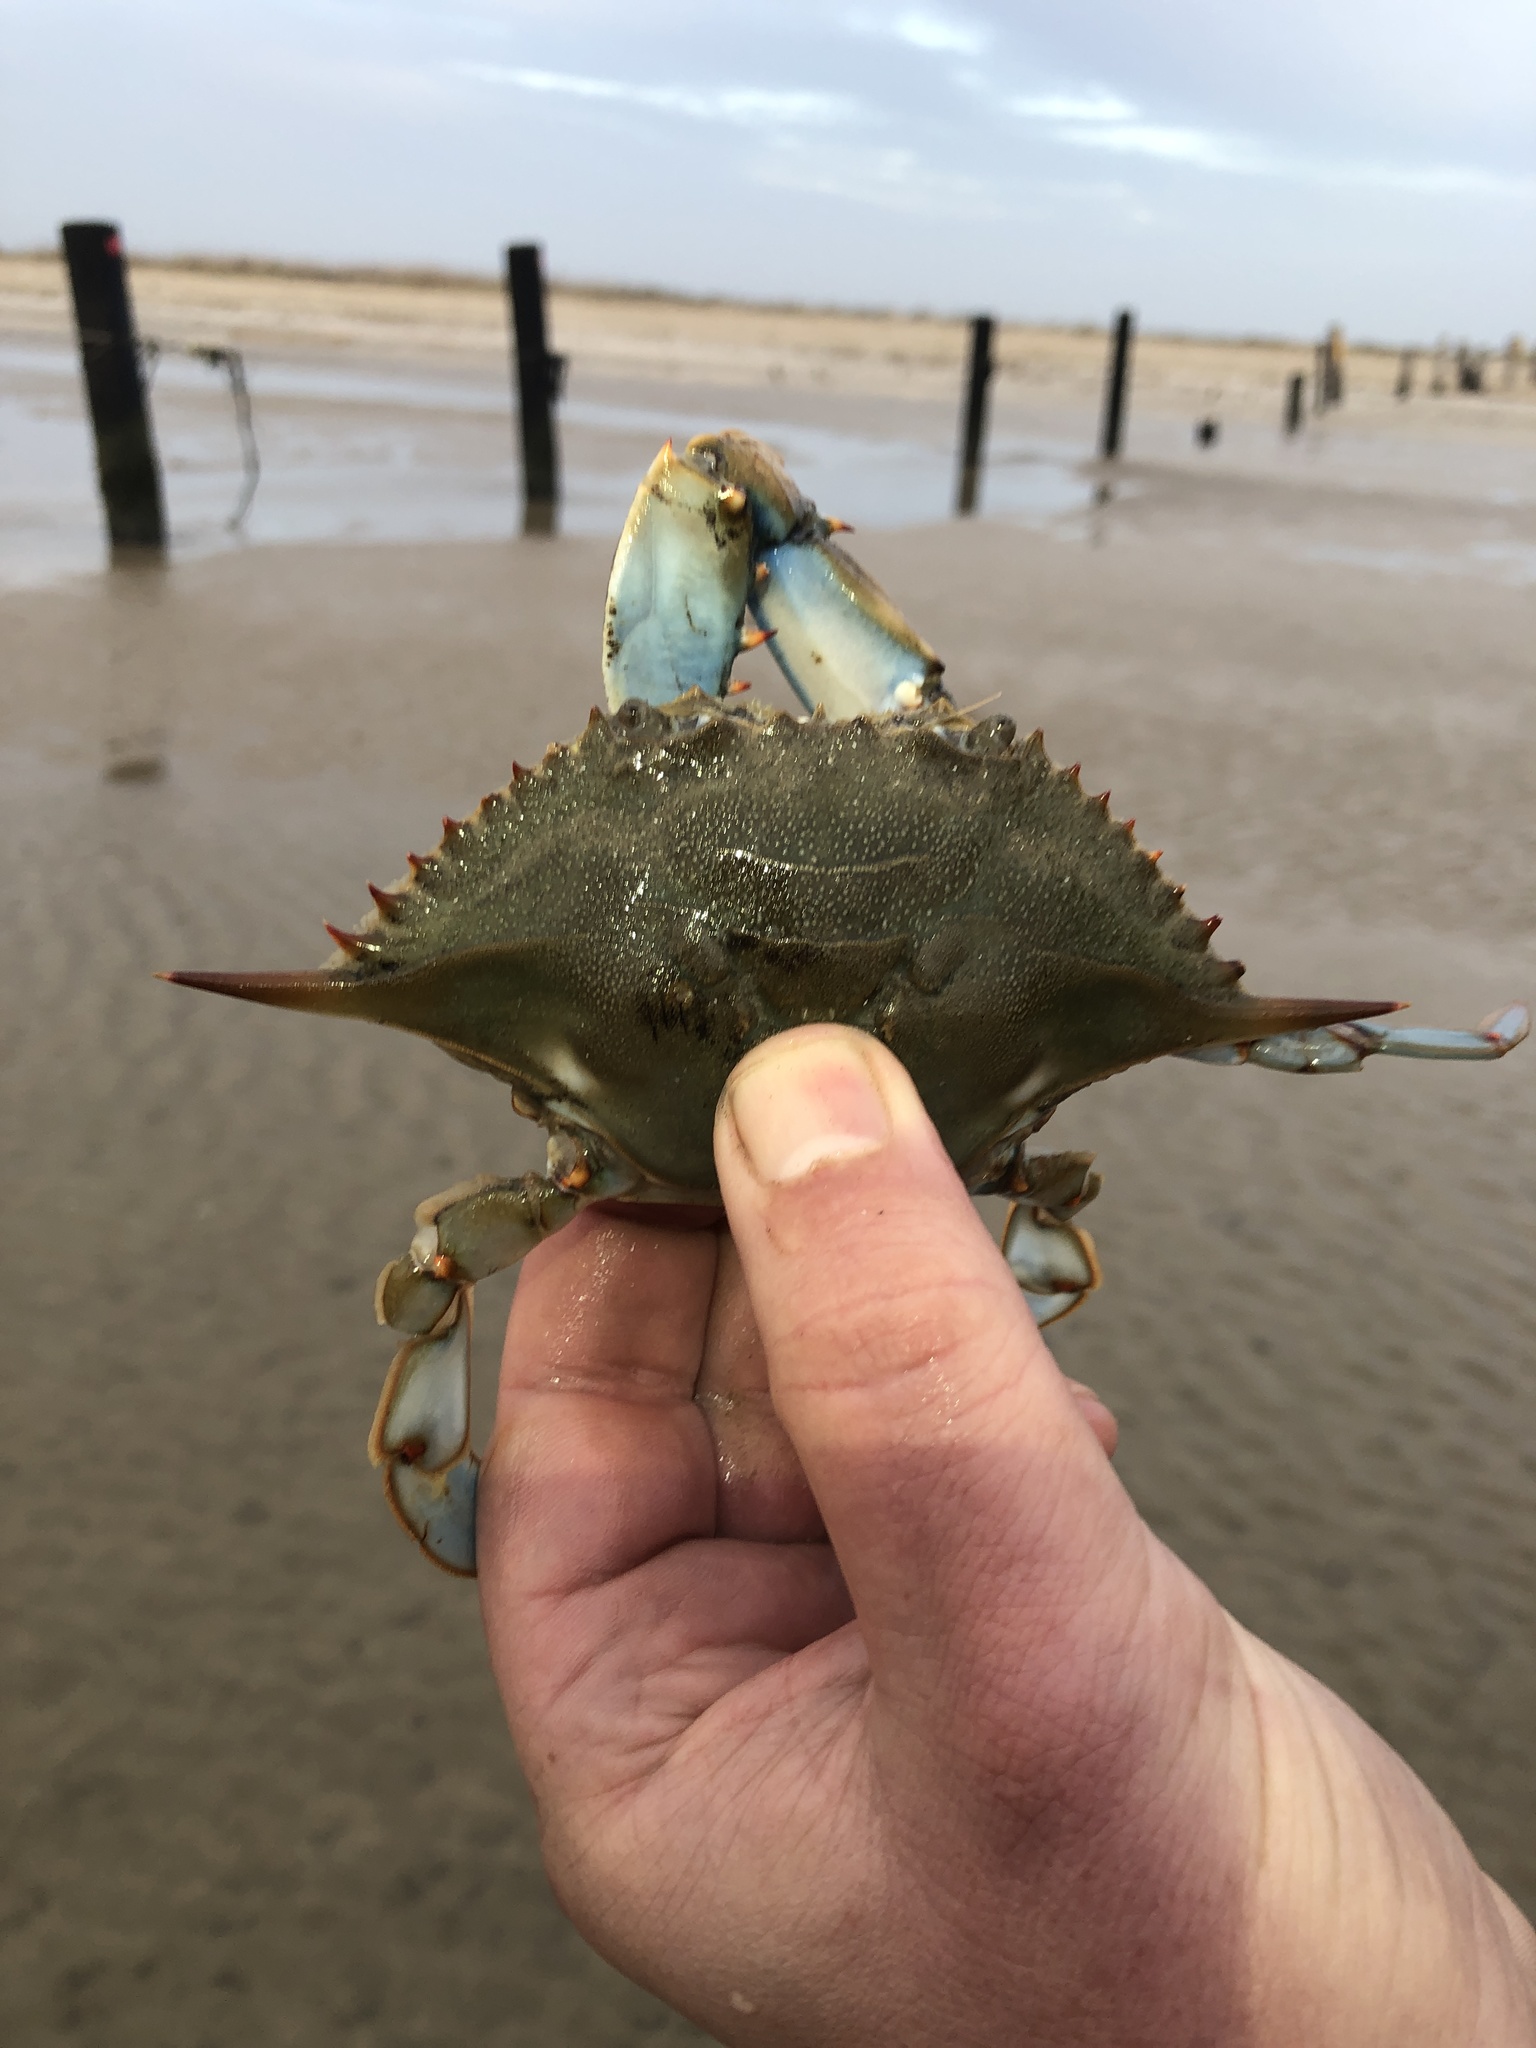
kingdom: Animalia
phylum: Arthropoda
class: Malacostraca
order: Decapoda
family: Portunidae
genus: Callinectes
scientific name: Callinectes sapidus
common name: Blue crab
